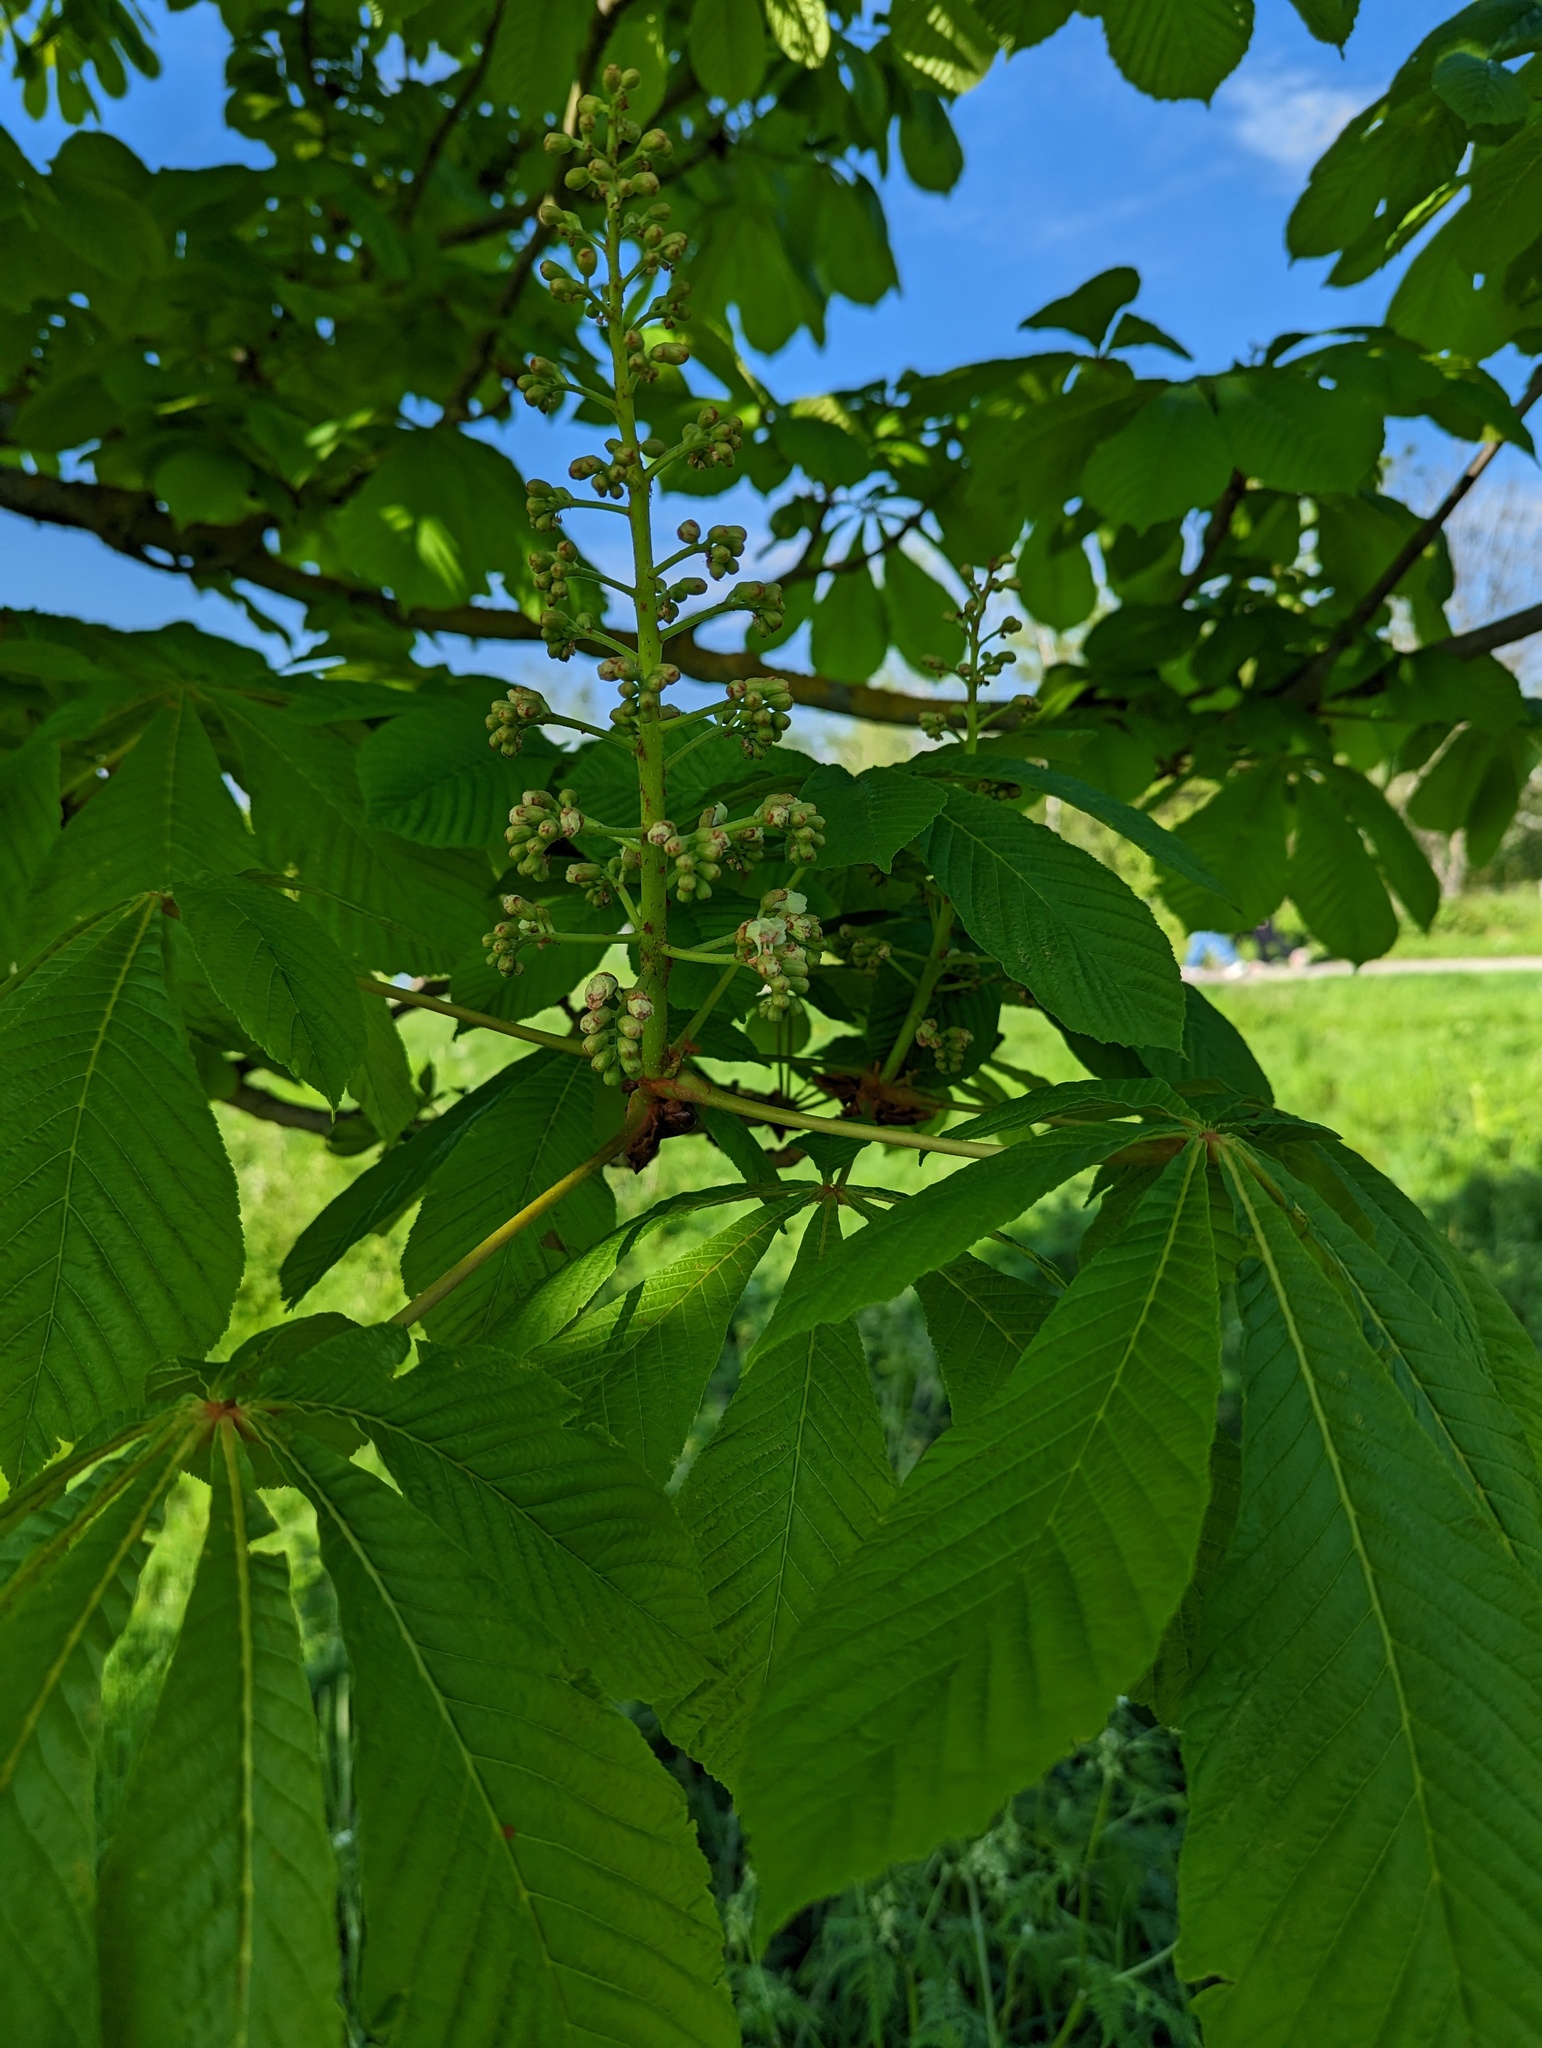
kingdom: Plantae
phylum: Tracheophyta
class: Magnoliopsida
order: Sapindales
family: Sapindaceae
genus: Aesculus
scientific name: Aesculus hippocastanum
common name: Horse-chestnut
